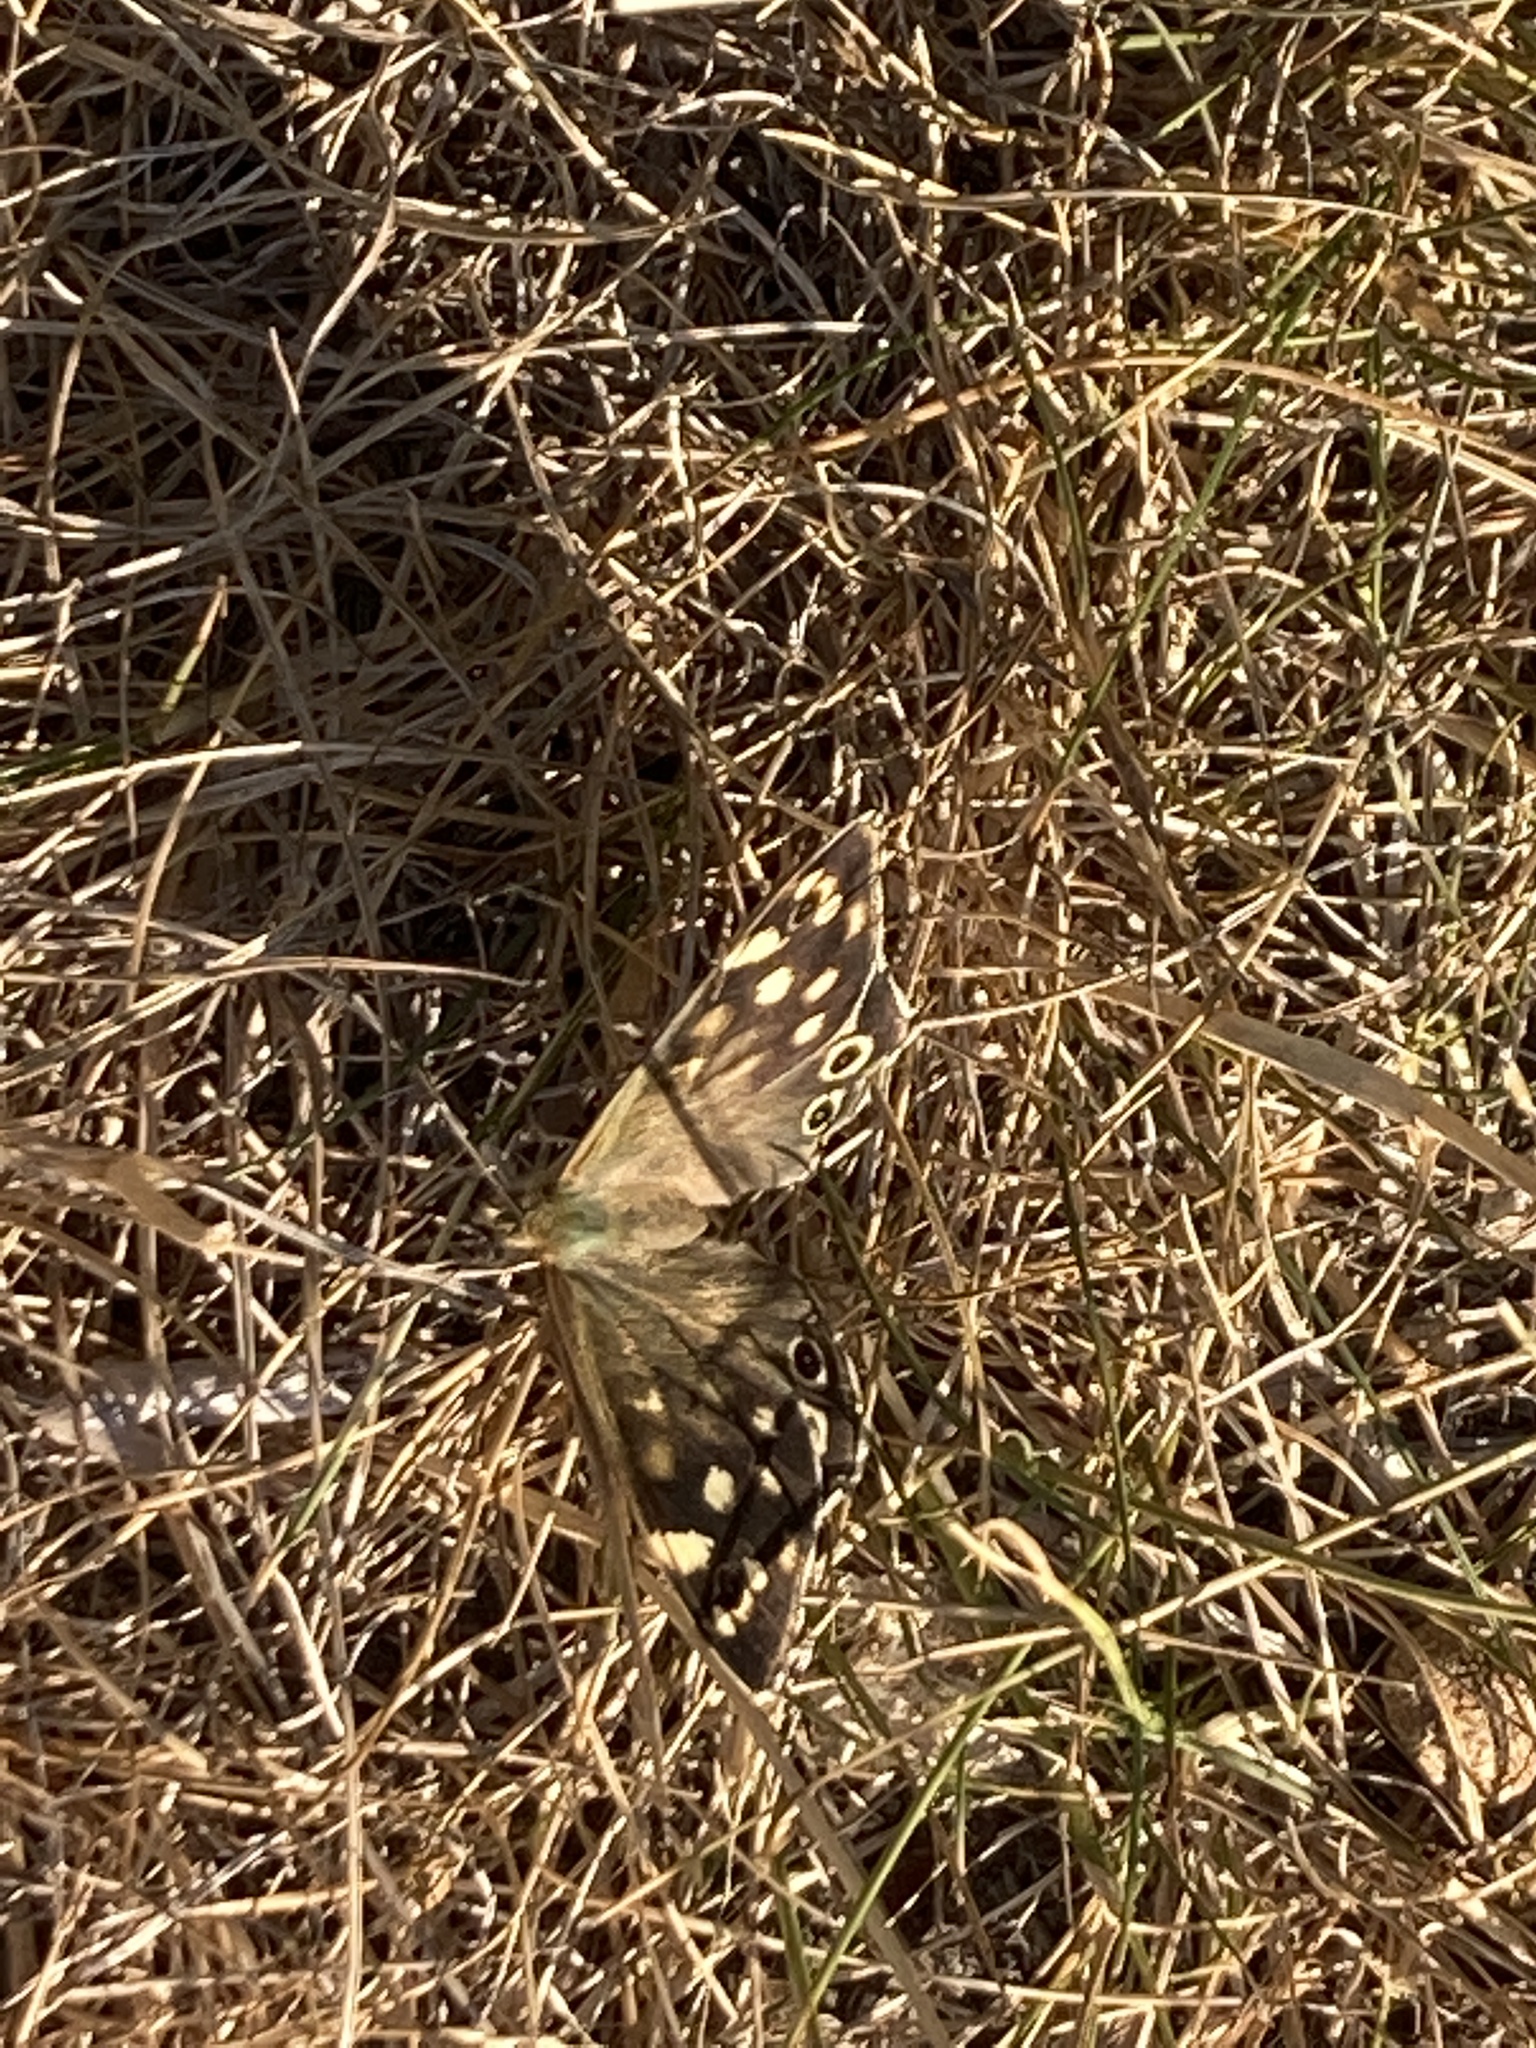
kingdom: Animalia
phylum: Arthropoda
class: Insecta
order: Lepidoptera
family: Nymphalidae
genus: Pararge
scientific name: Pararge aegeria
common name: Speckled wood
